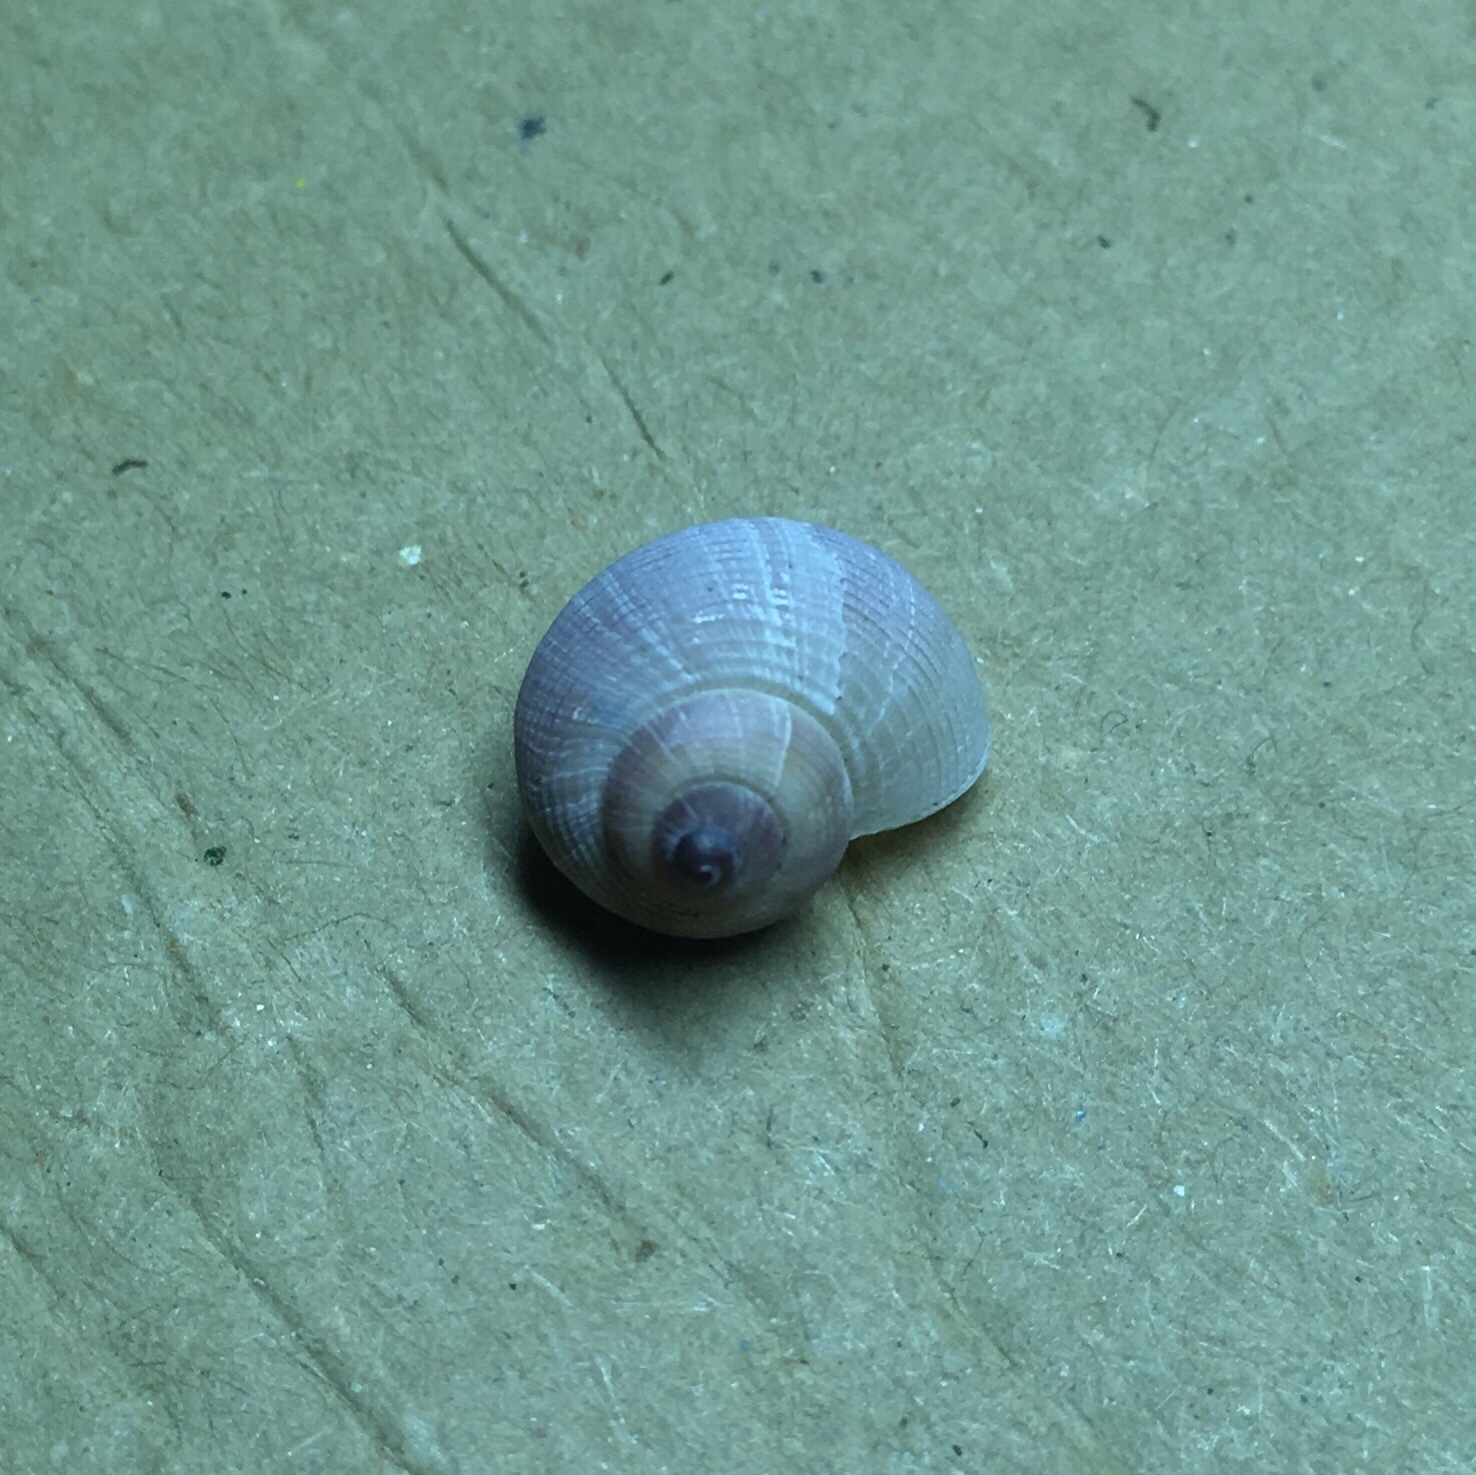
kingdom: Animalia
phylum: Mollusca
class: Gastropoda
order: Littorinimorpha
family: Pomatiidae
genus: Pomatias
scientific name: Pomatias rivularis
